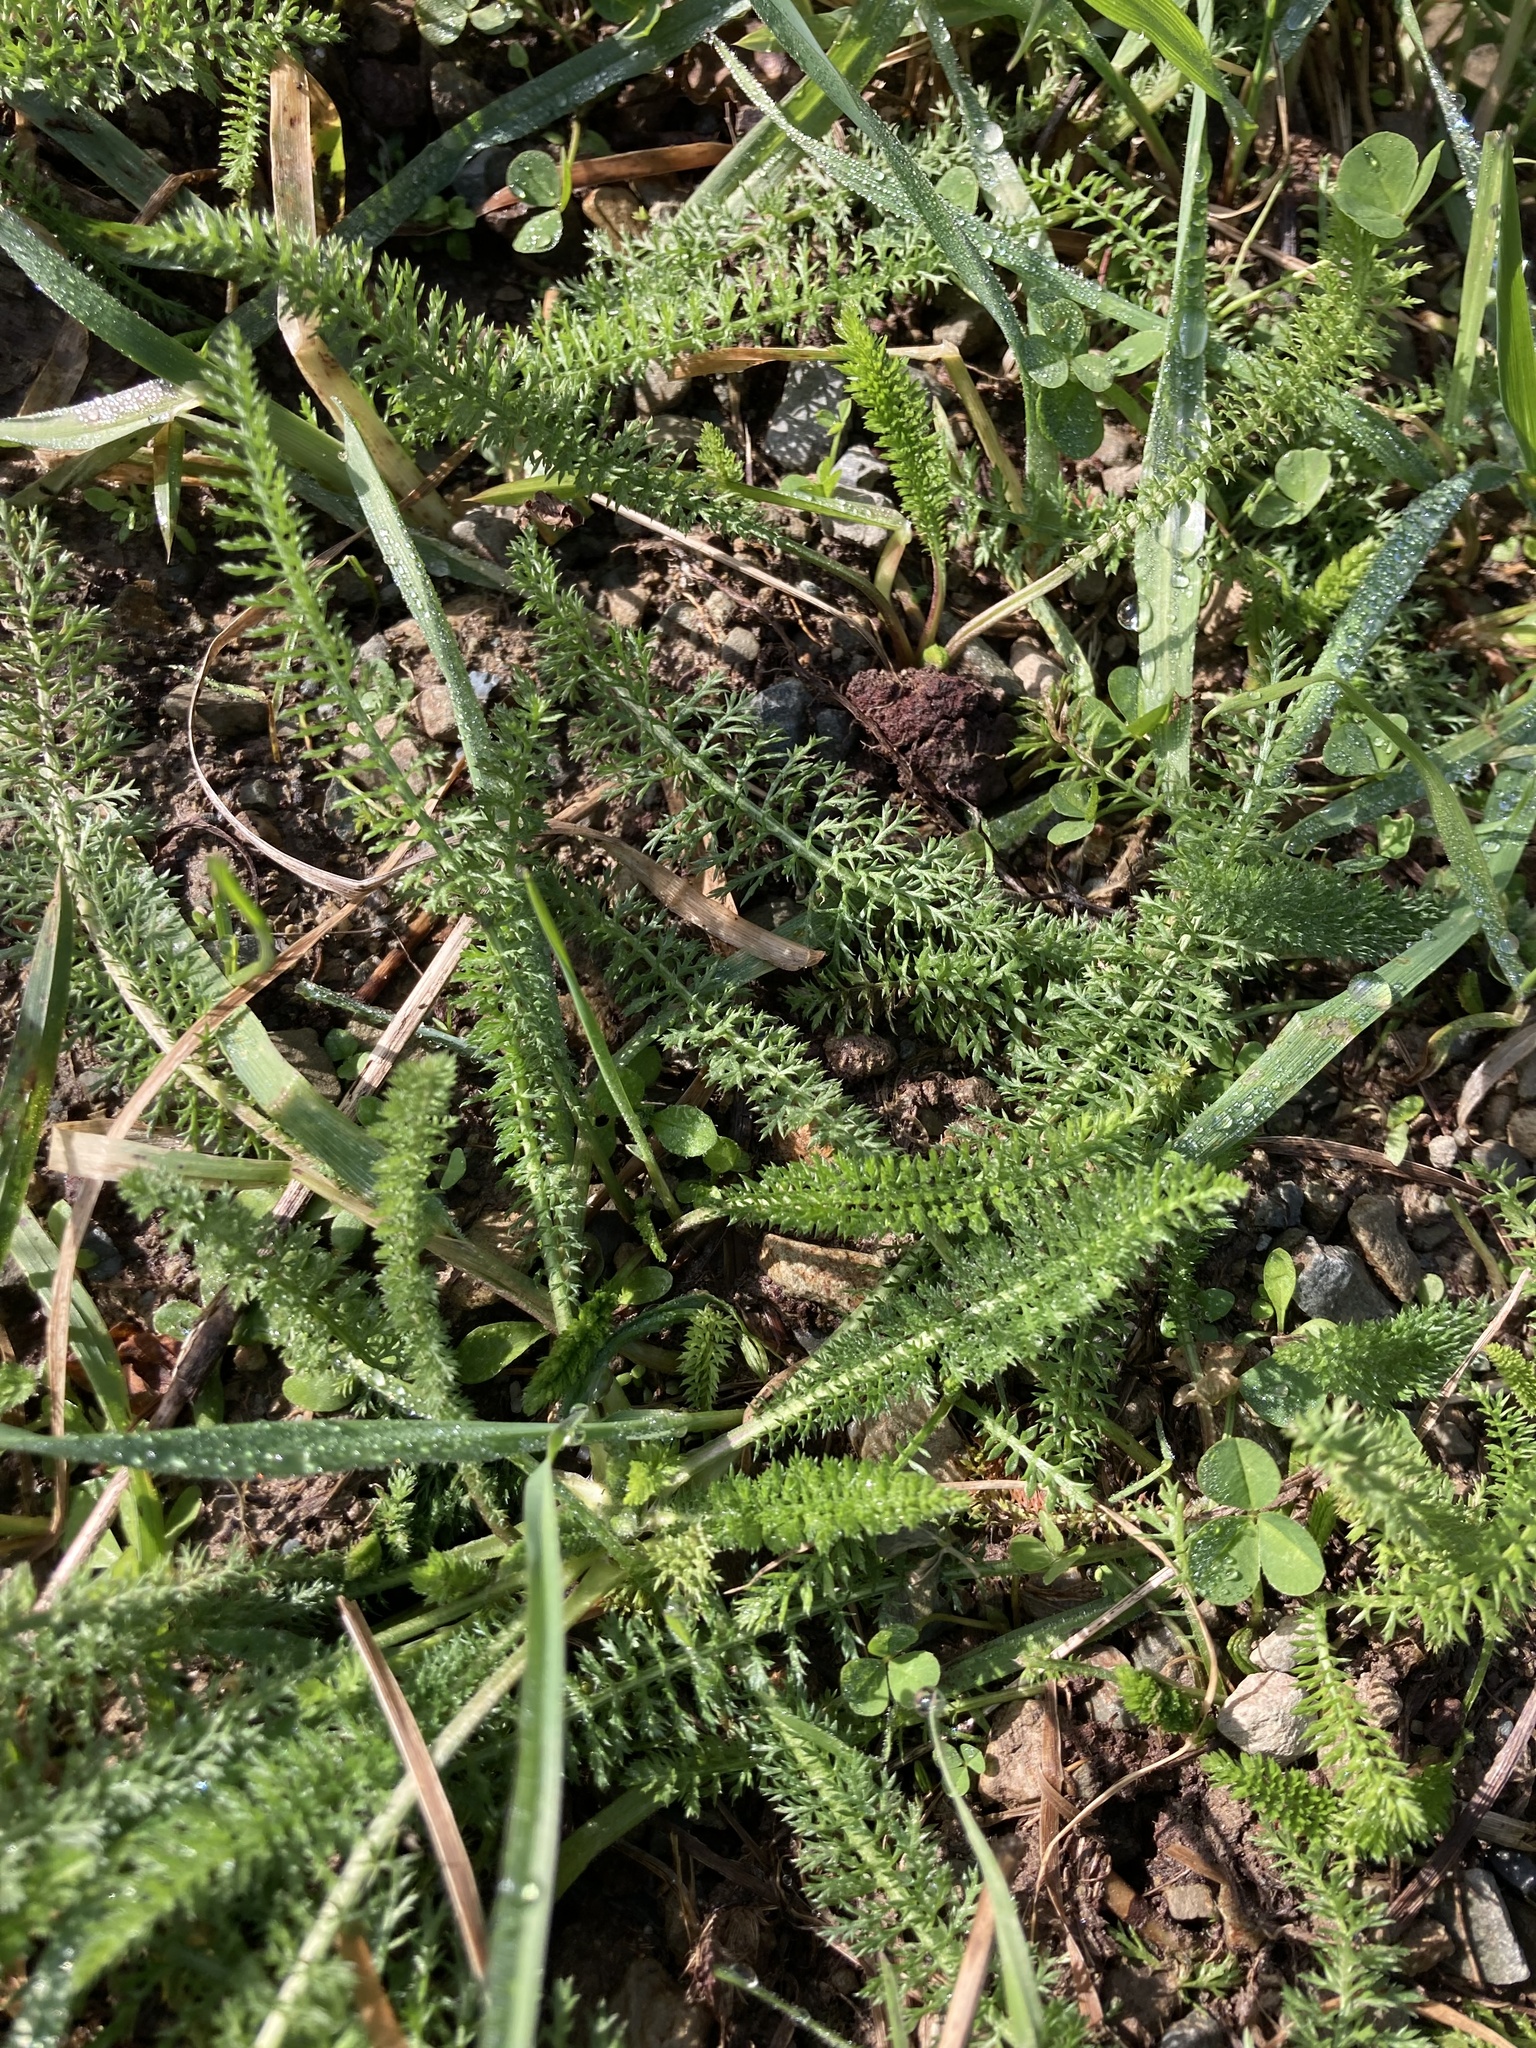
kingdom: Plantae
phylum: Tracheophyta
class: Magnoliopsida
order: Asterales
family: Asteraceae
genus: Achillea
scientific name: Achillea millefolium
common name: Yarrow
